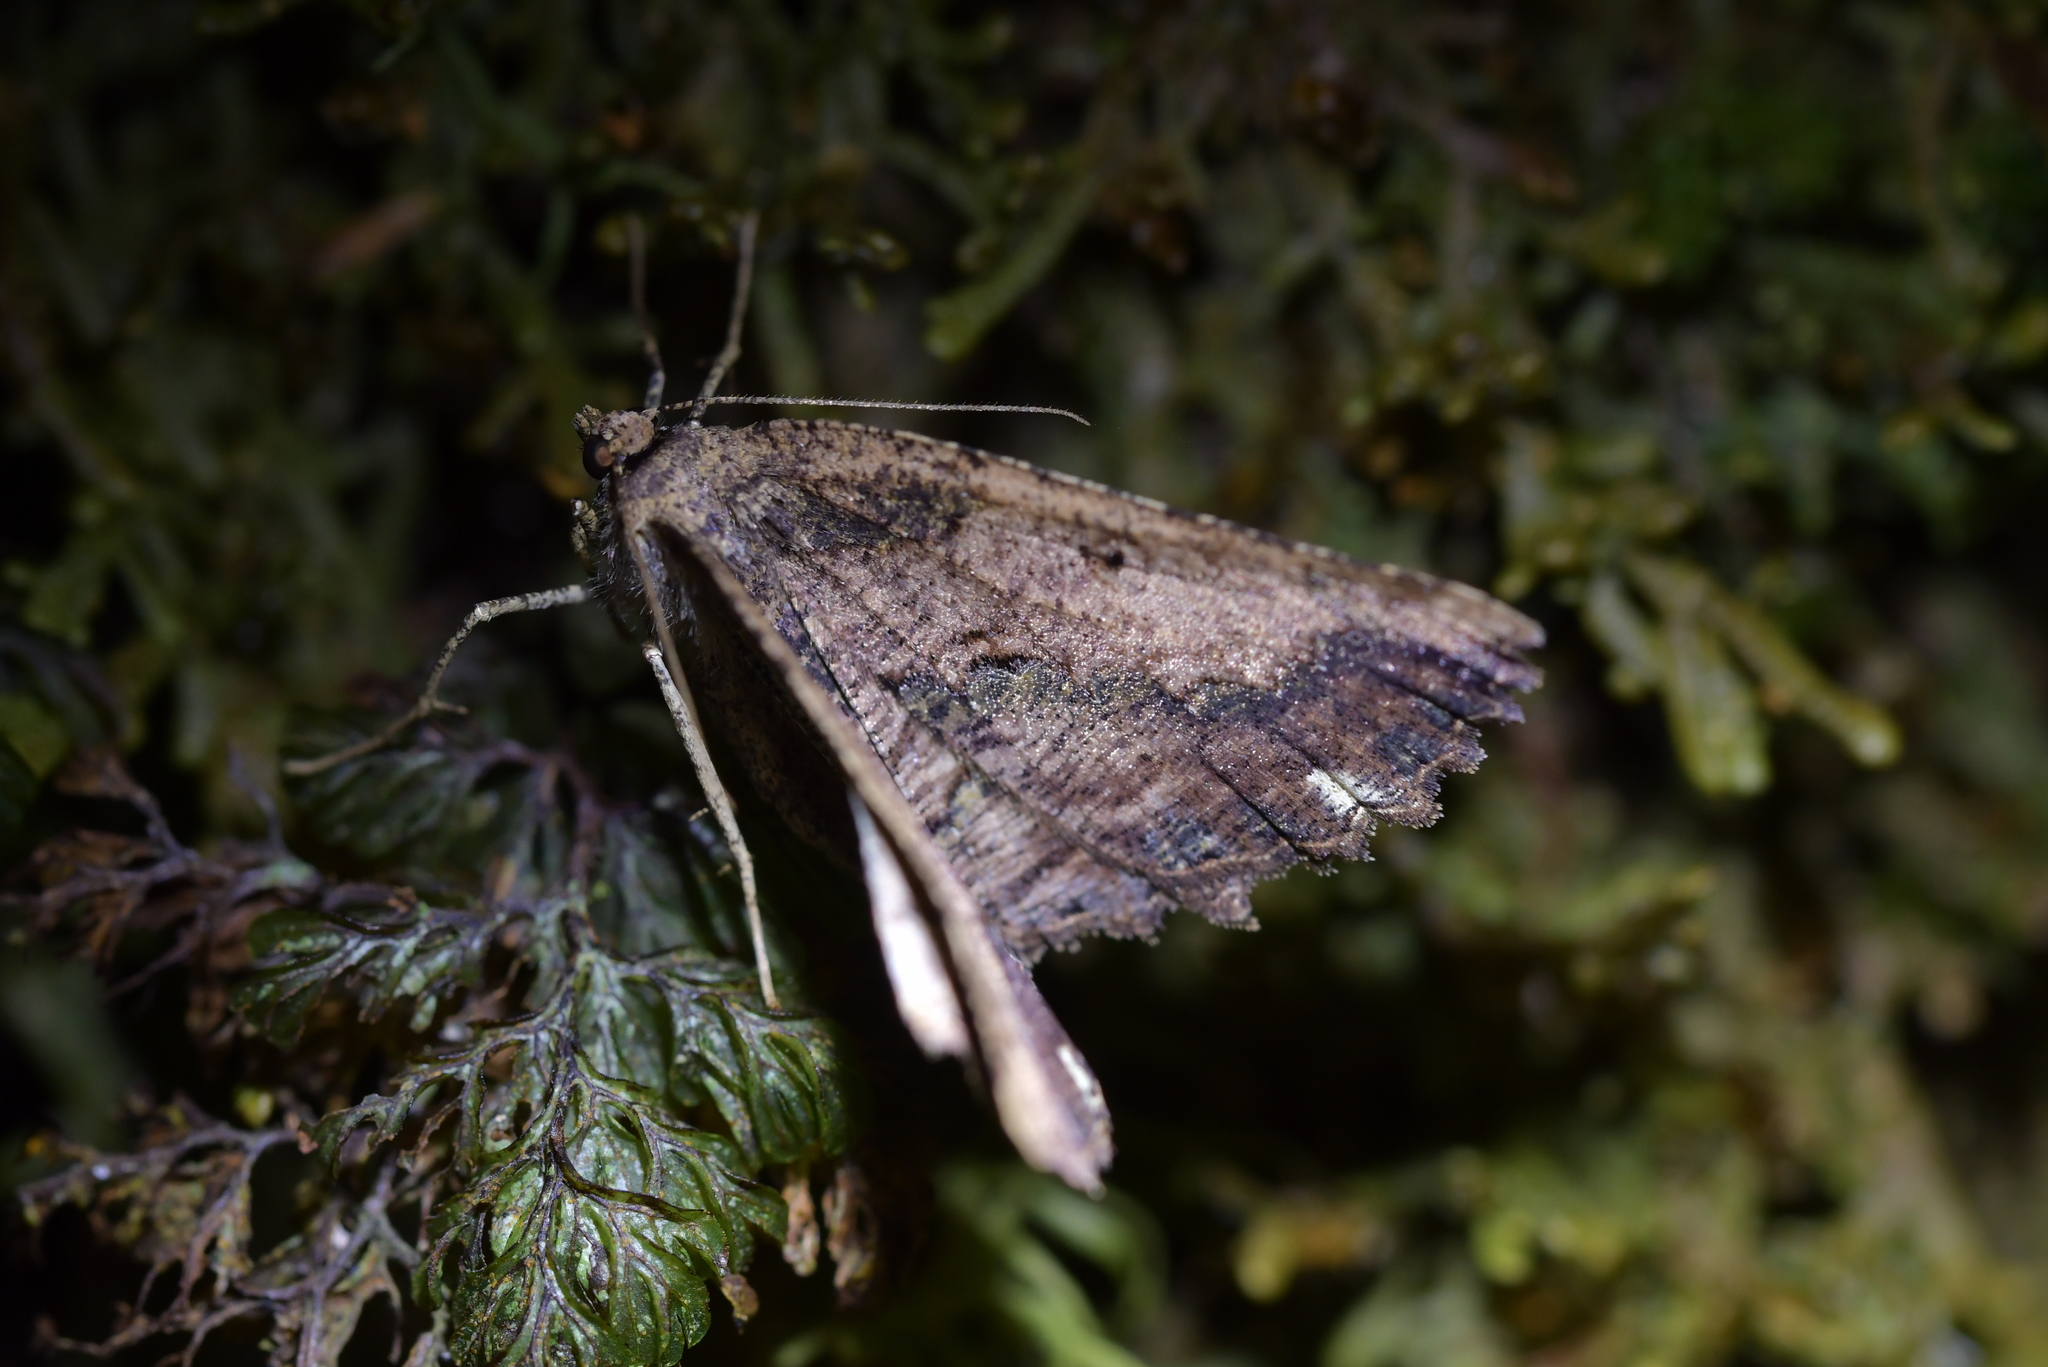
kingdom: Animalia
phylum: Arthropoda
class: Insecta
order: Lepidoptera
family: Geometridae
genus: Gellonia
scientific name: Gellonia pannularia
